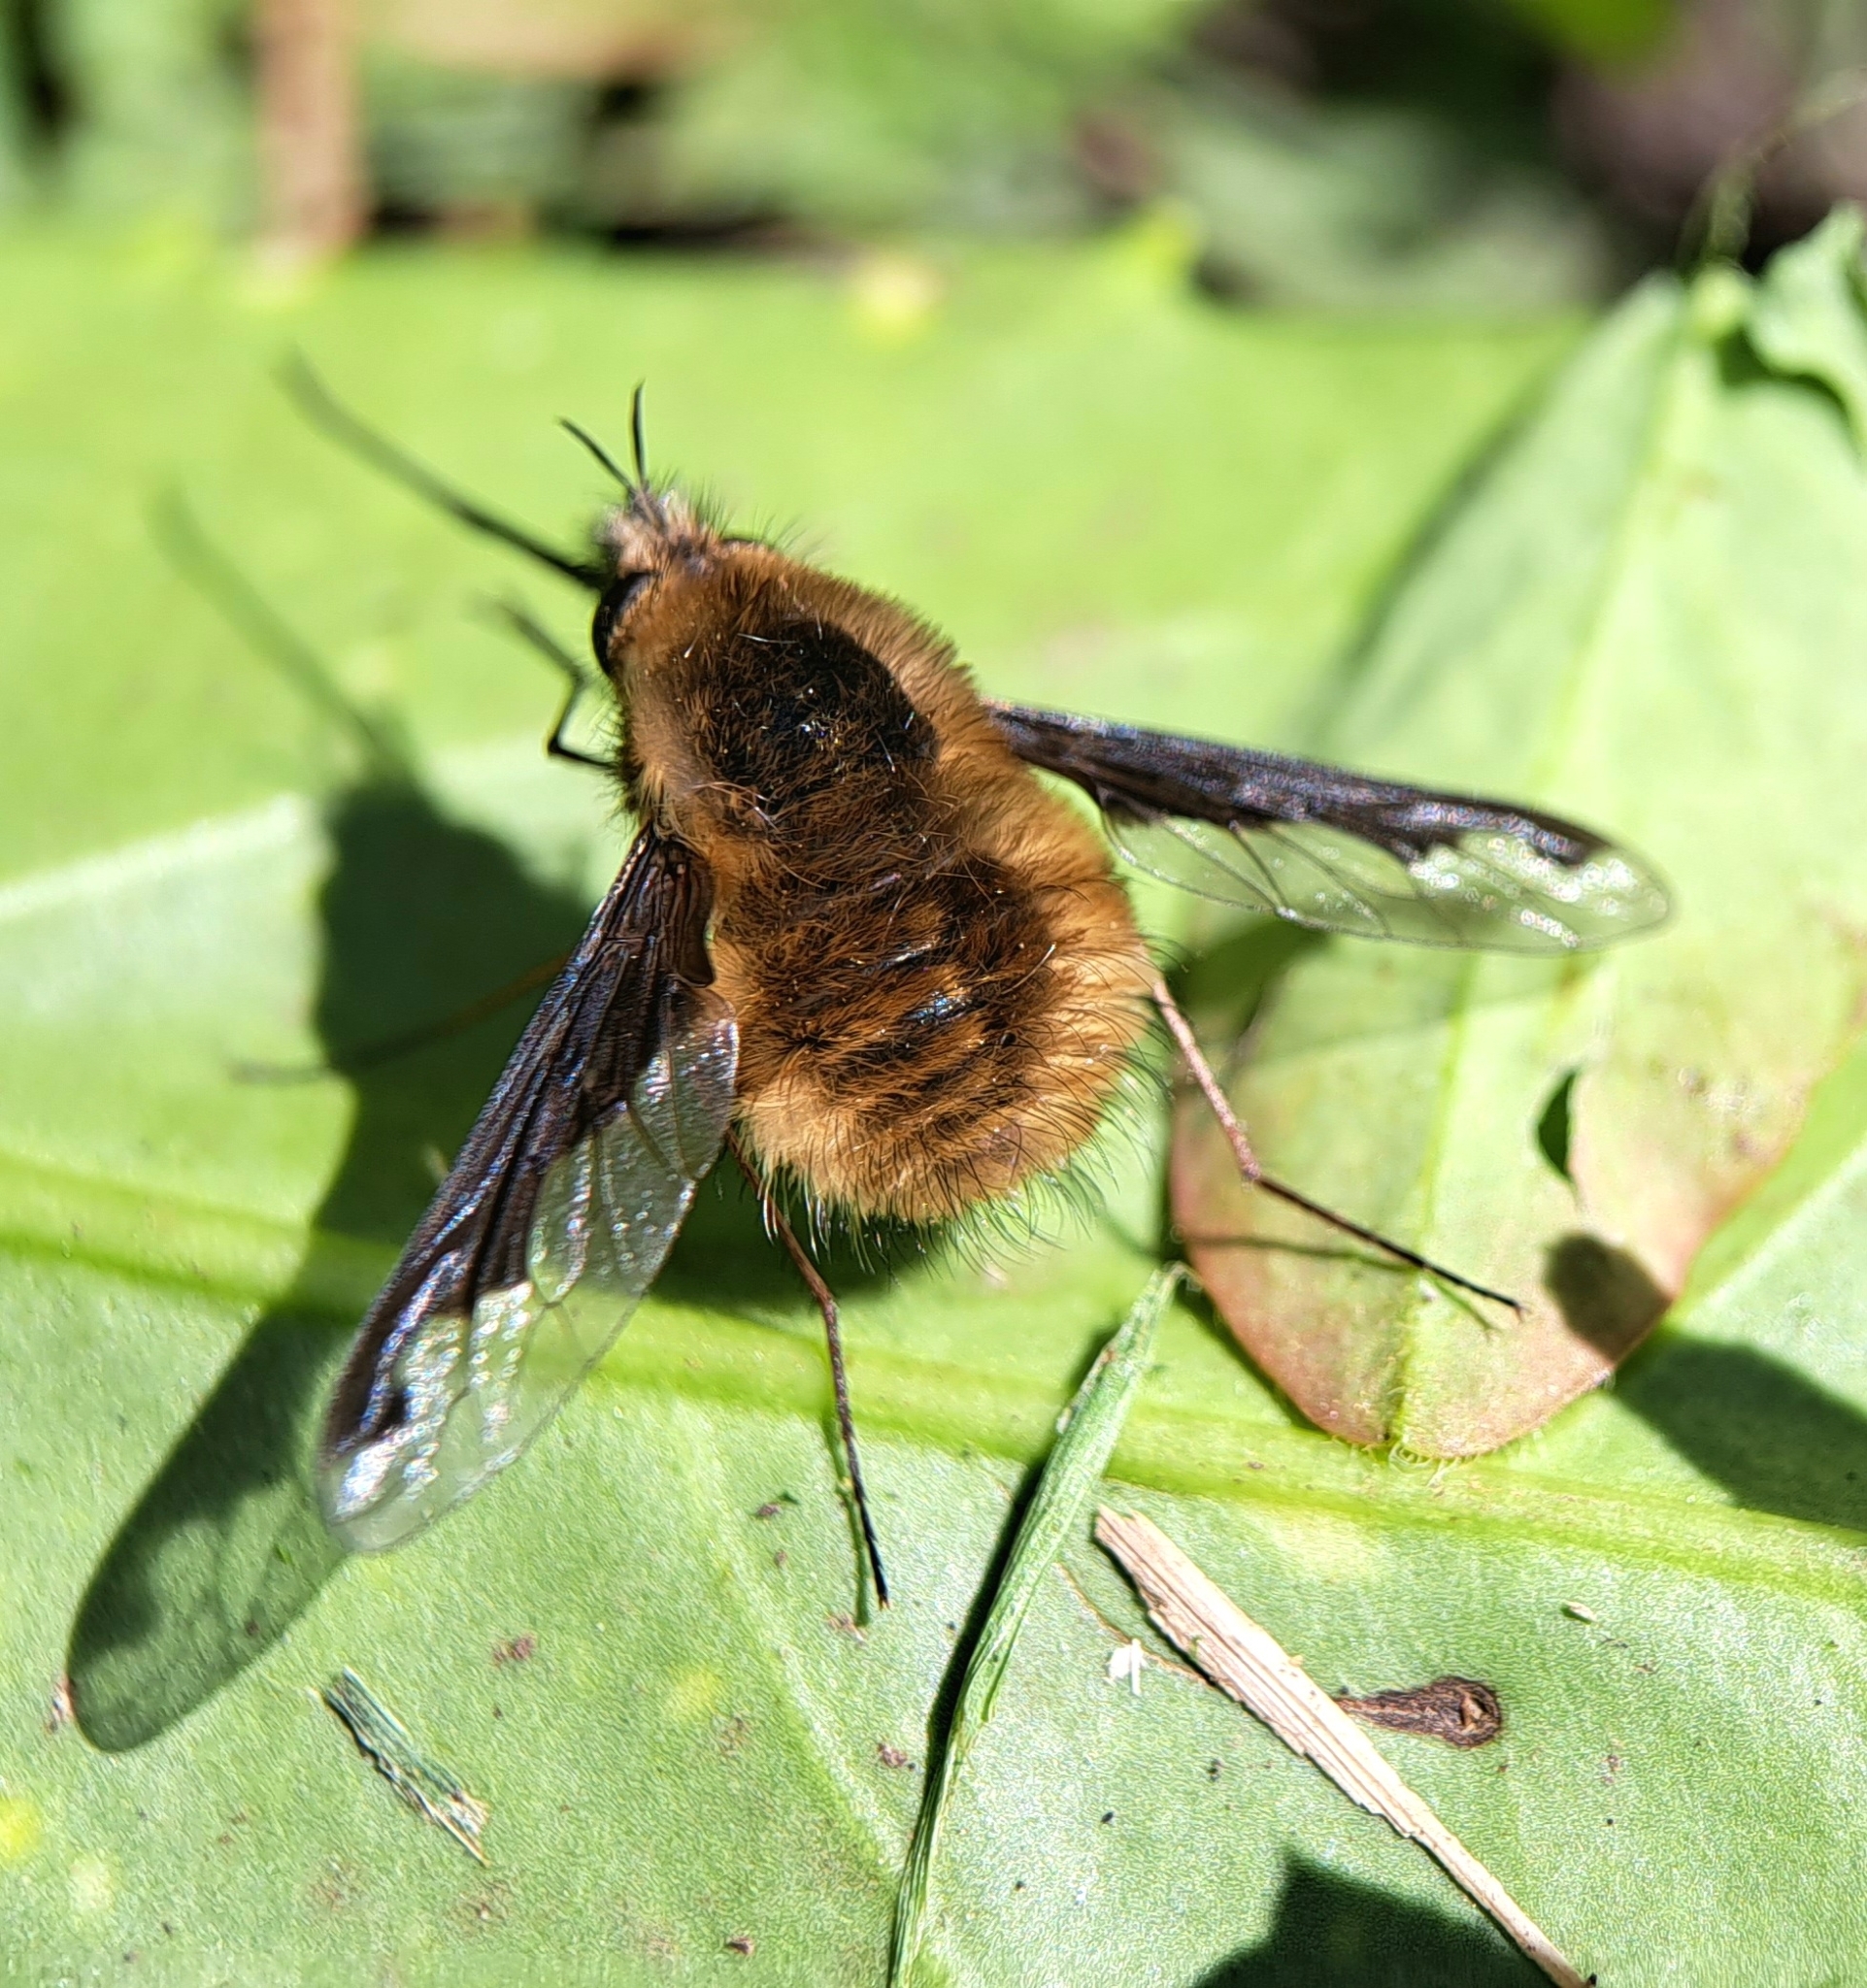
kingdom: Animalia
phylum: Arthropoda
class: Insecta
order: Diptera
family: Bombyliidae
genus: Bombylius
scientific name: Bombylius major
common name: Bee fly
